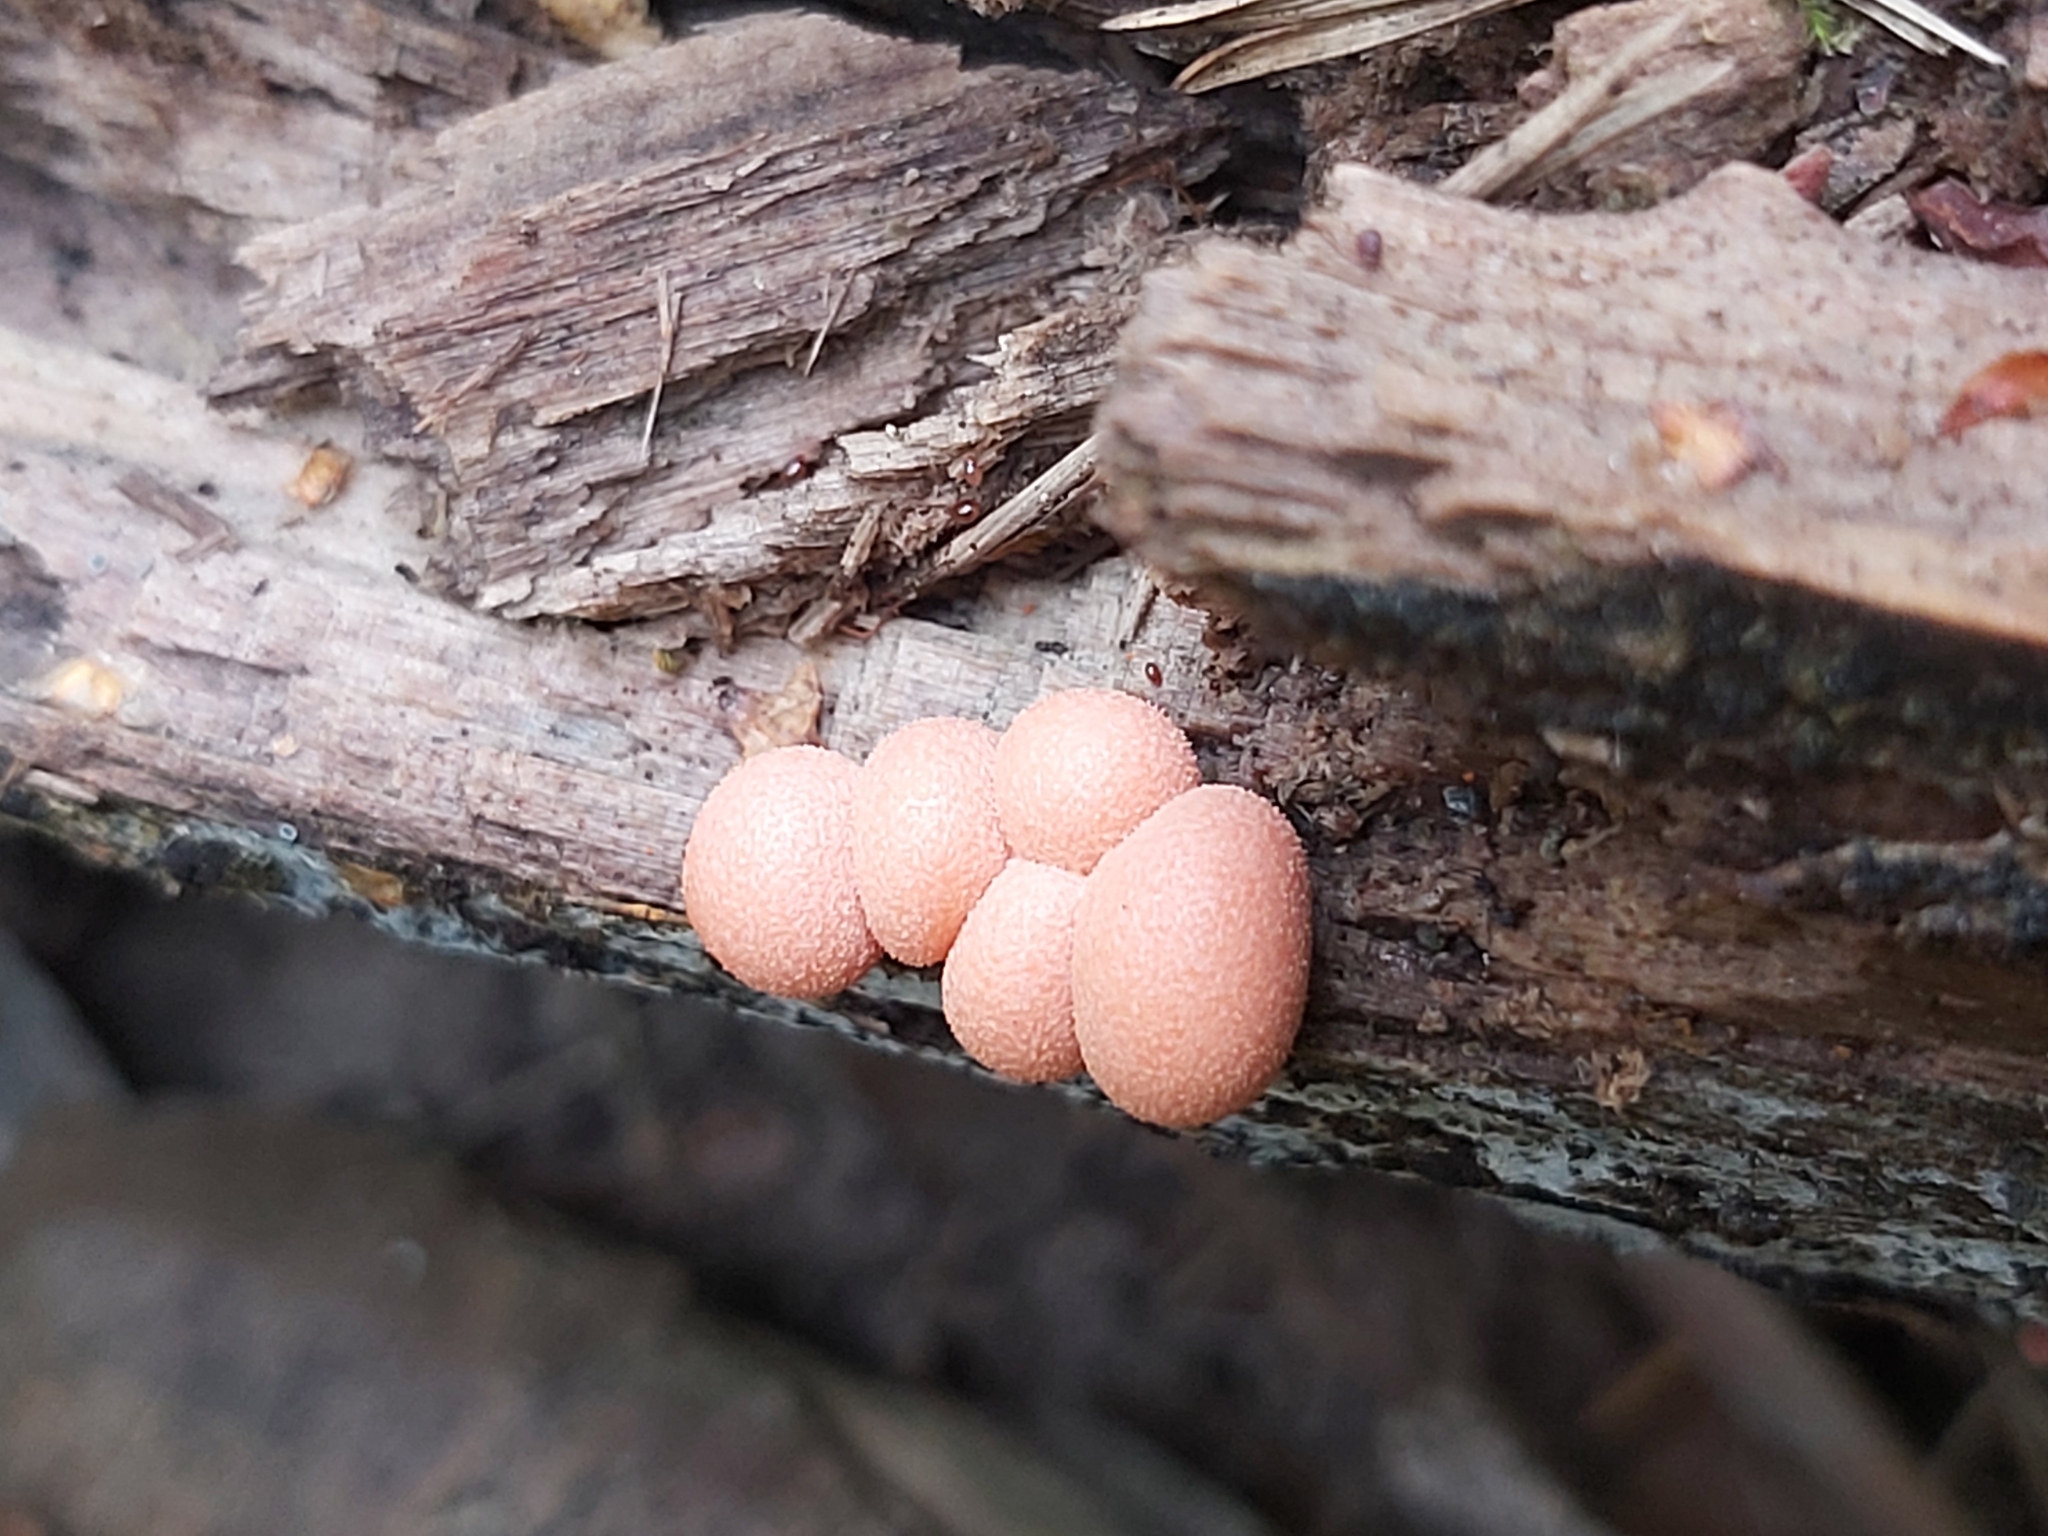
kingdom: Protozoa
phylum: Mycetozoa
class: Myxomycetes
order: Cribrariales
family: Tubiferaceae
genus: Lycogala
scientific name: Lycogala epidendrum
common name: Wolf's milk
